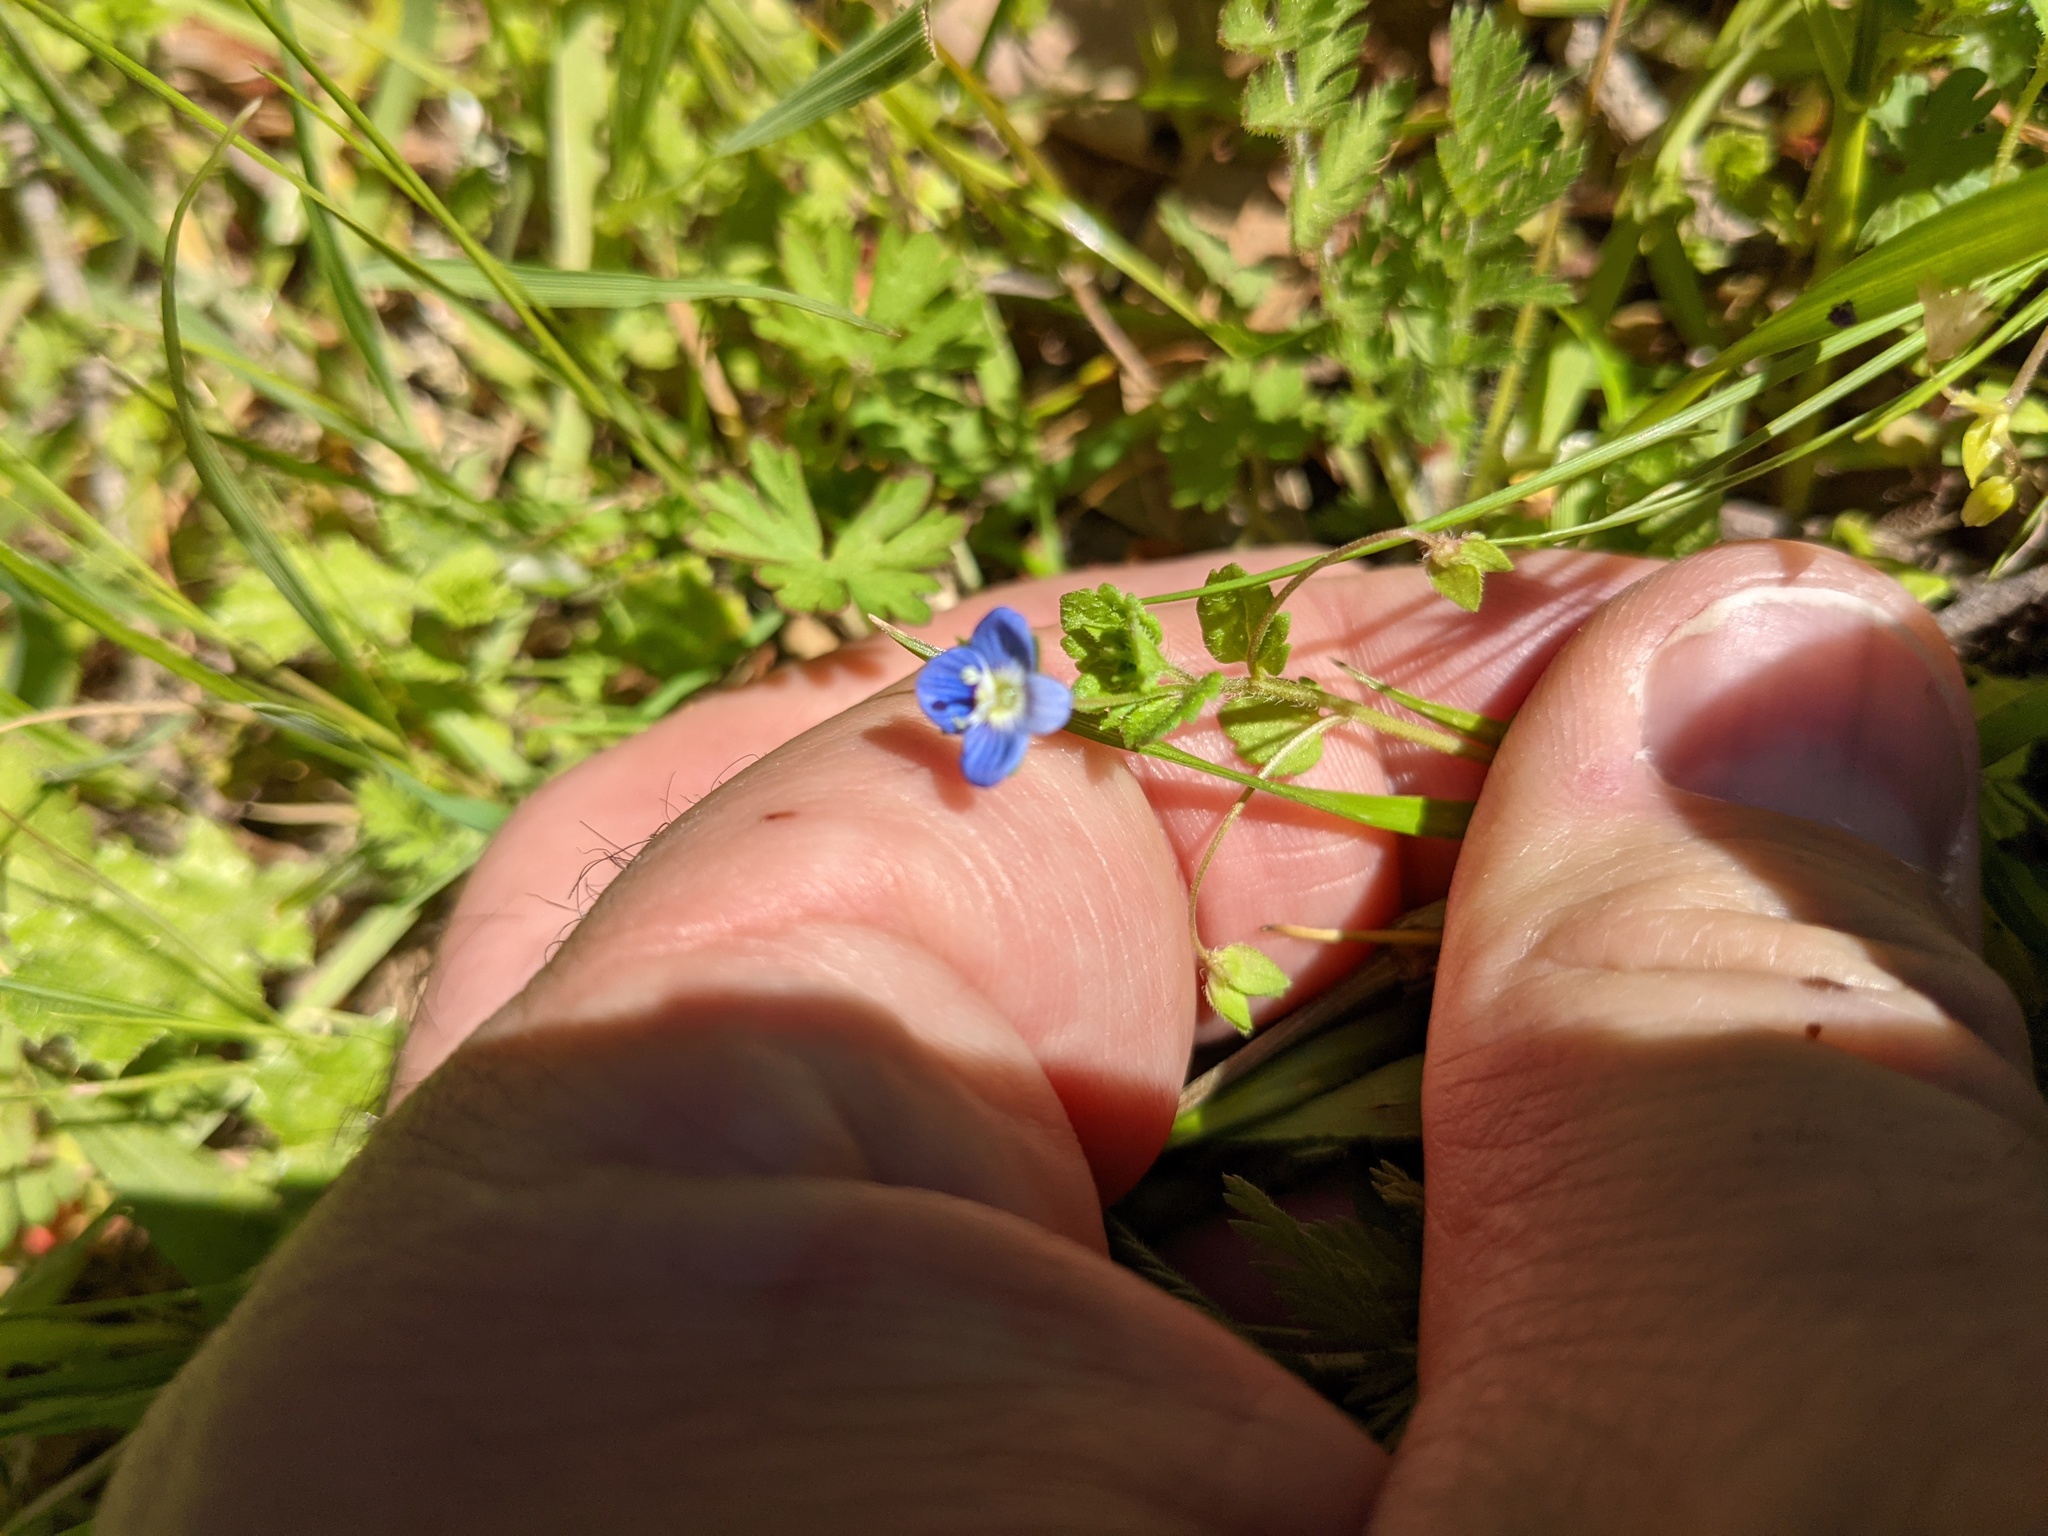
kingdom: Plantae
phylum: Tracheophyta
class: Magnoliopsida
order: Lamiales
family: Plantaginaceae
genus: Veronica
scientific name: Veronica persica
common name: Common field-speedwell
